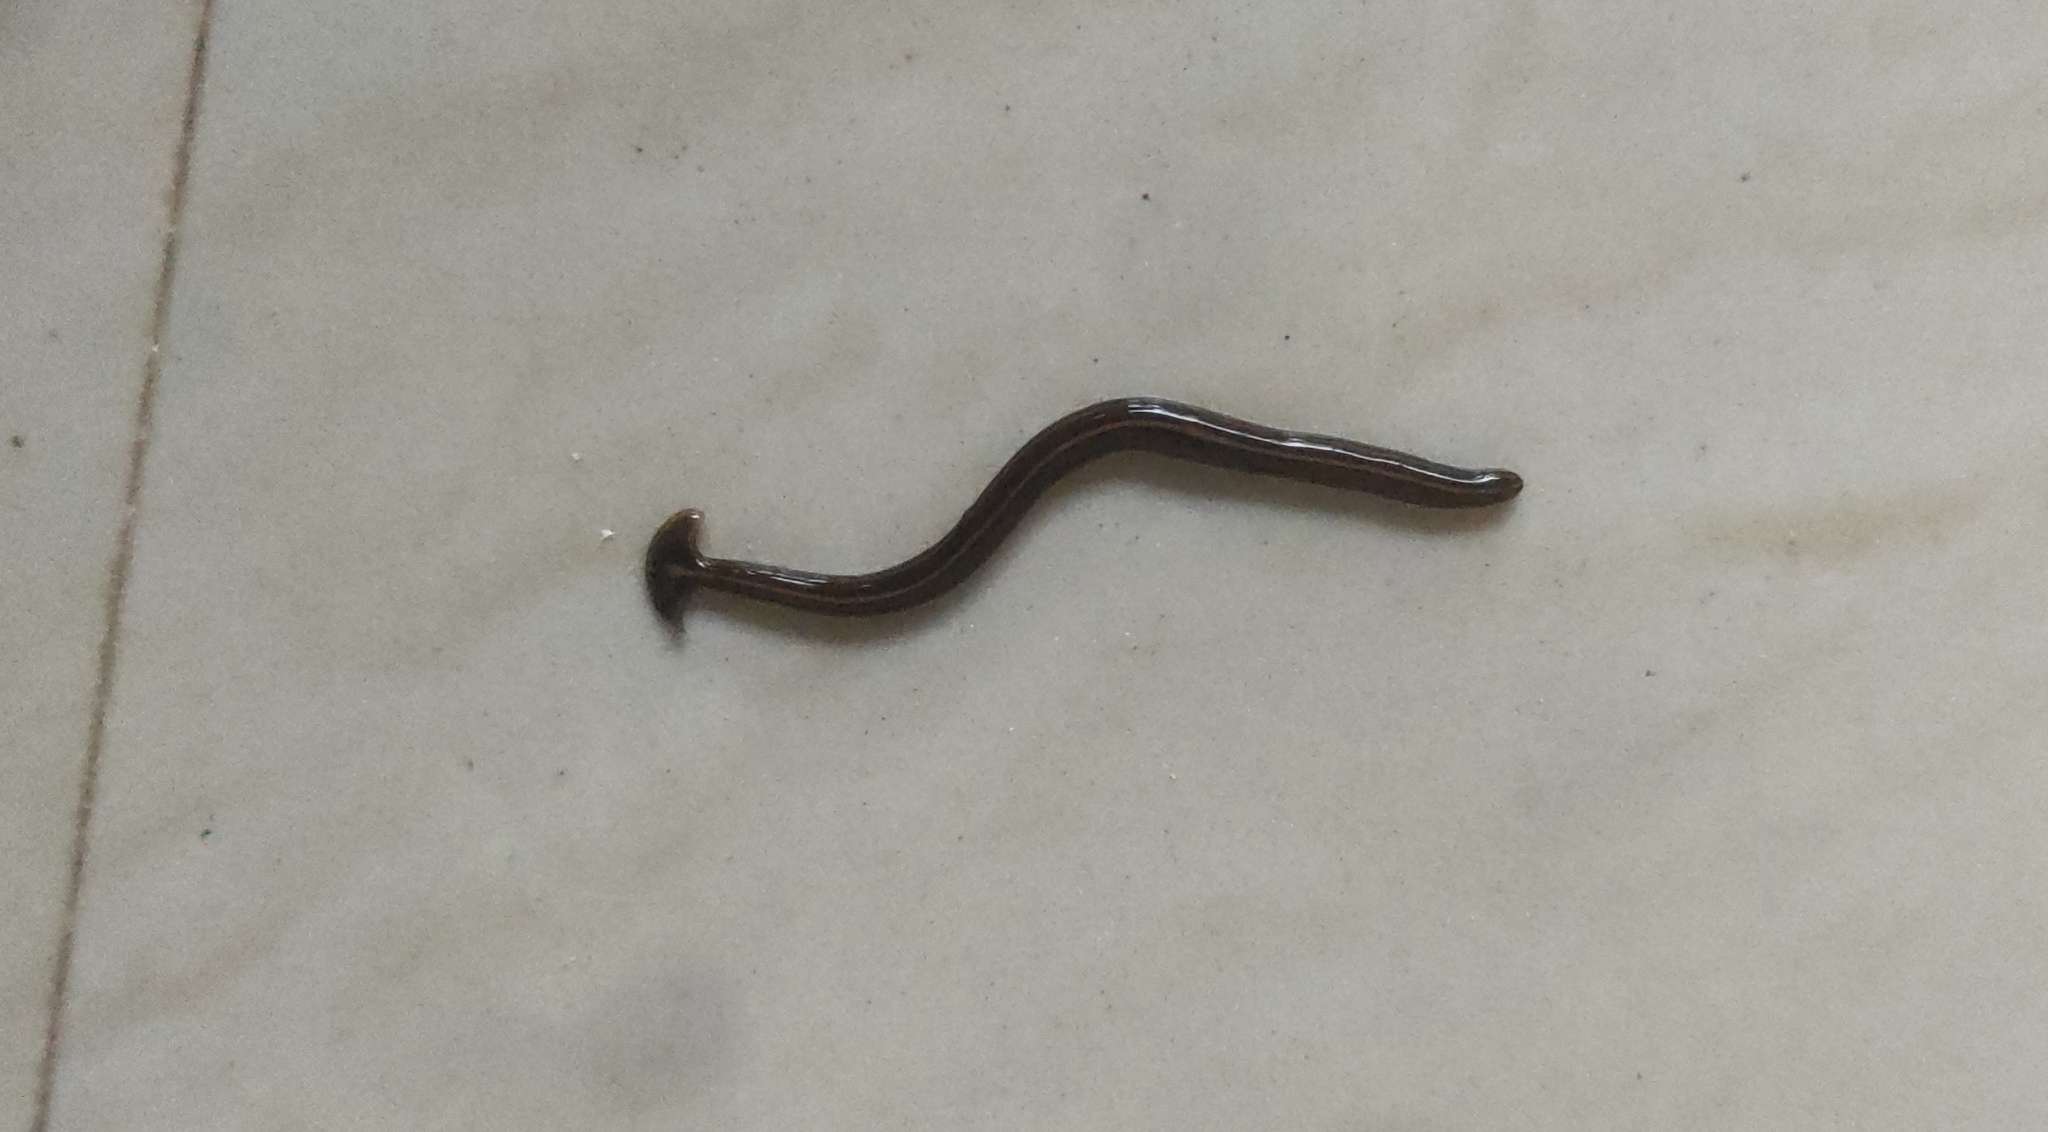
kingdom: Animalia
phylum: Platyhelminthes
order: Tricladida
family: Geoplanidae
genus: Humbertium
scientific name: Humbertium proserpina
